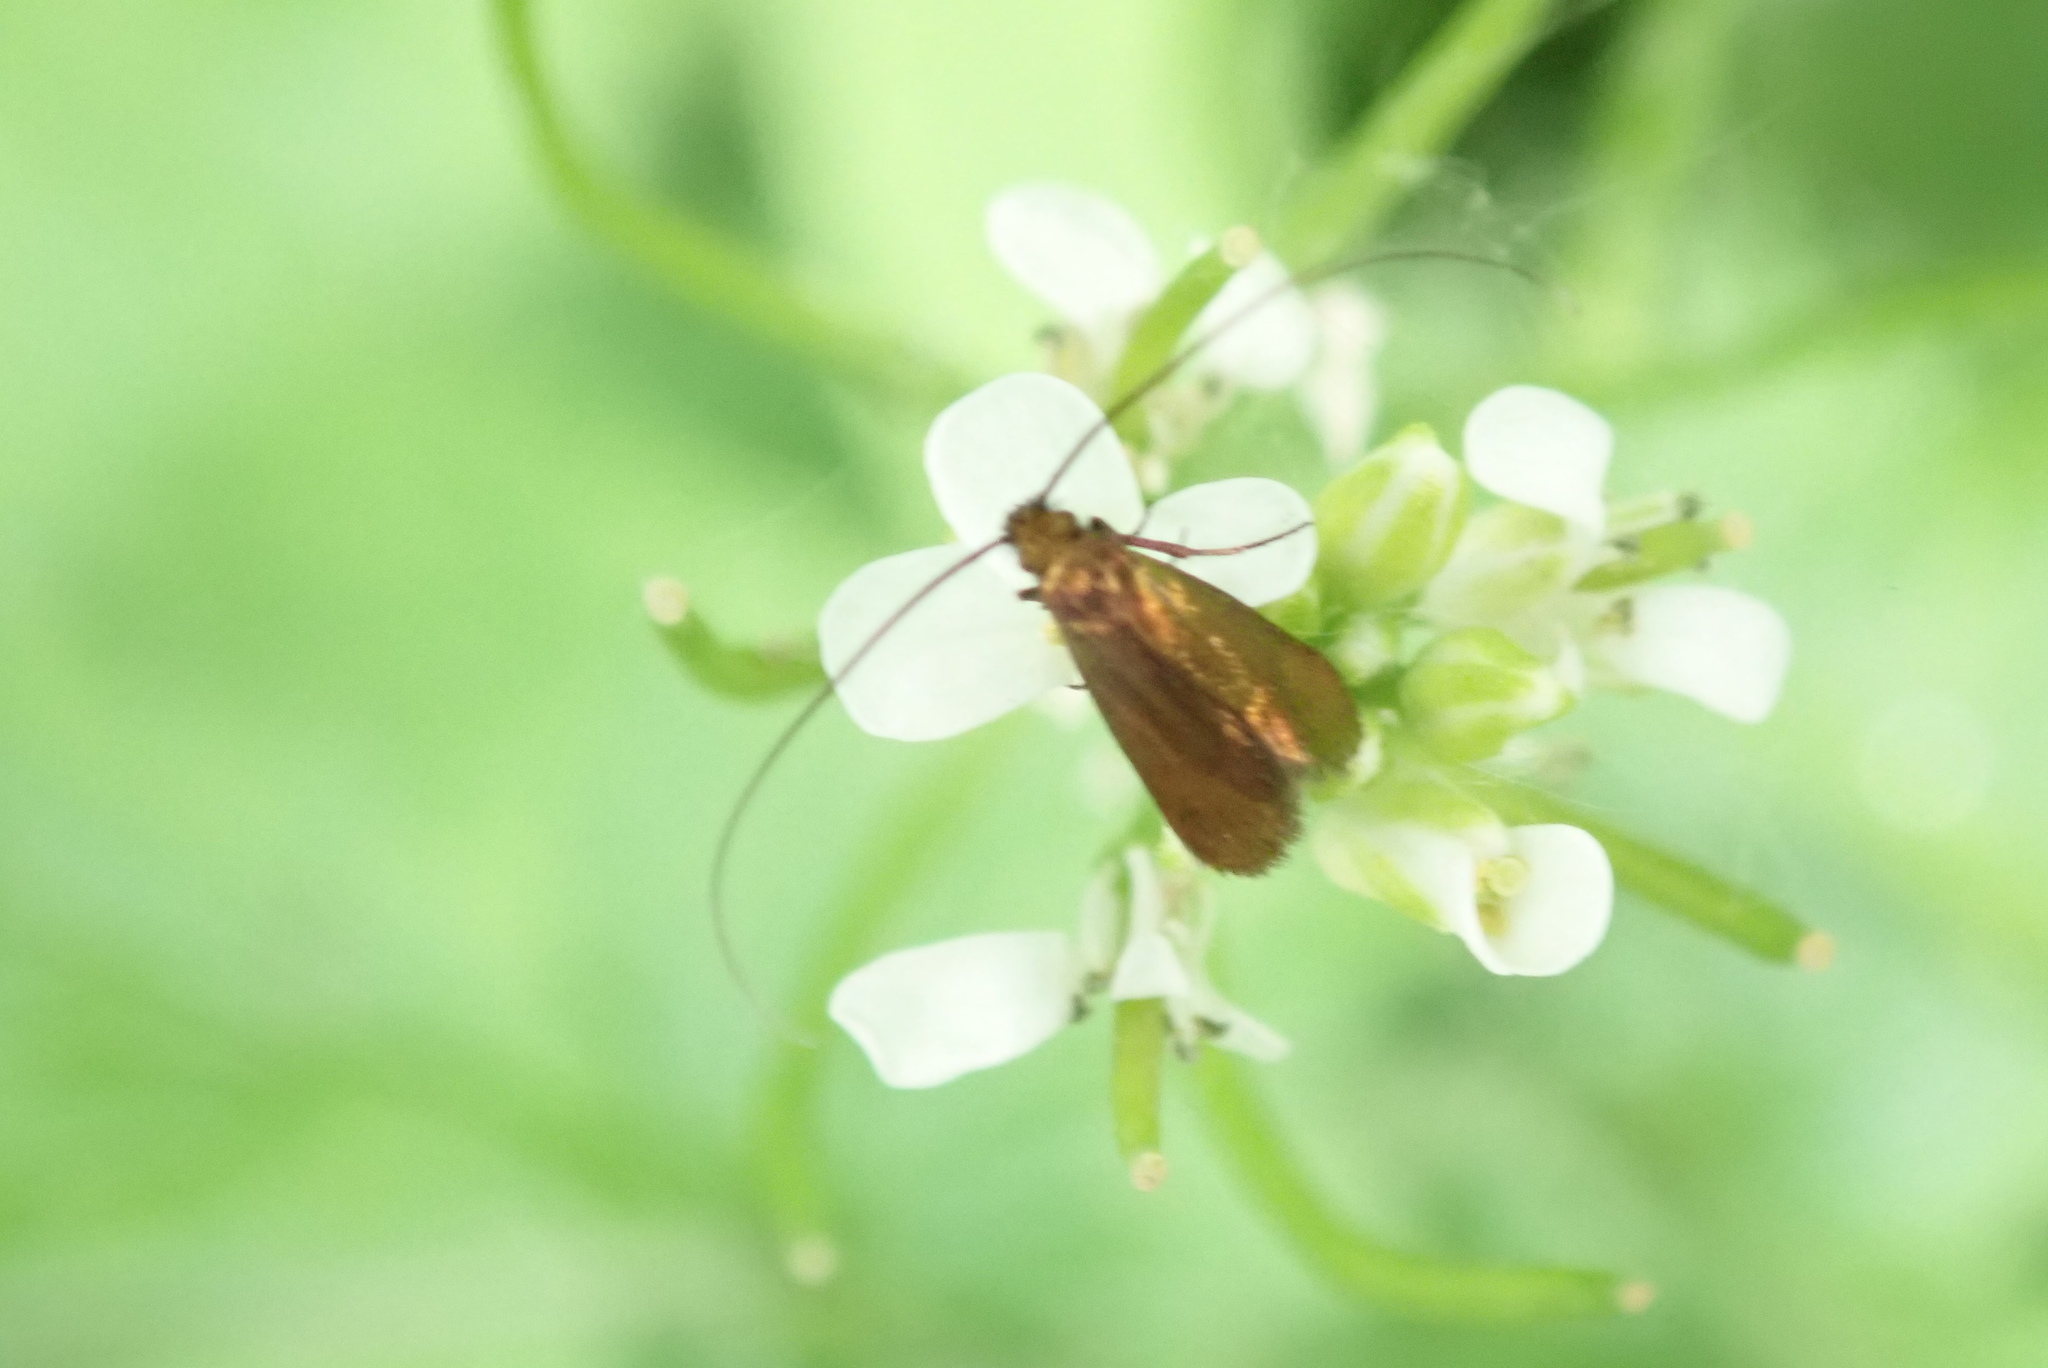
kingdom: Animalia
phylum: Arthropoda
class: Insecta
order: Lepidoptera
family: Adelidae
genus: Cauchas
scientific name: Cauchas rufimitrella
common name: Meadow long-horn
